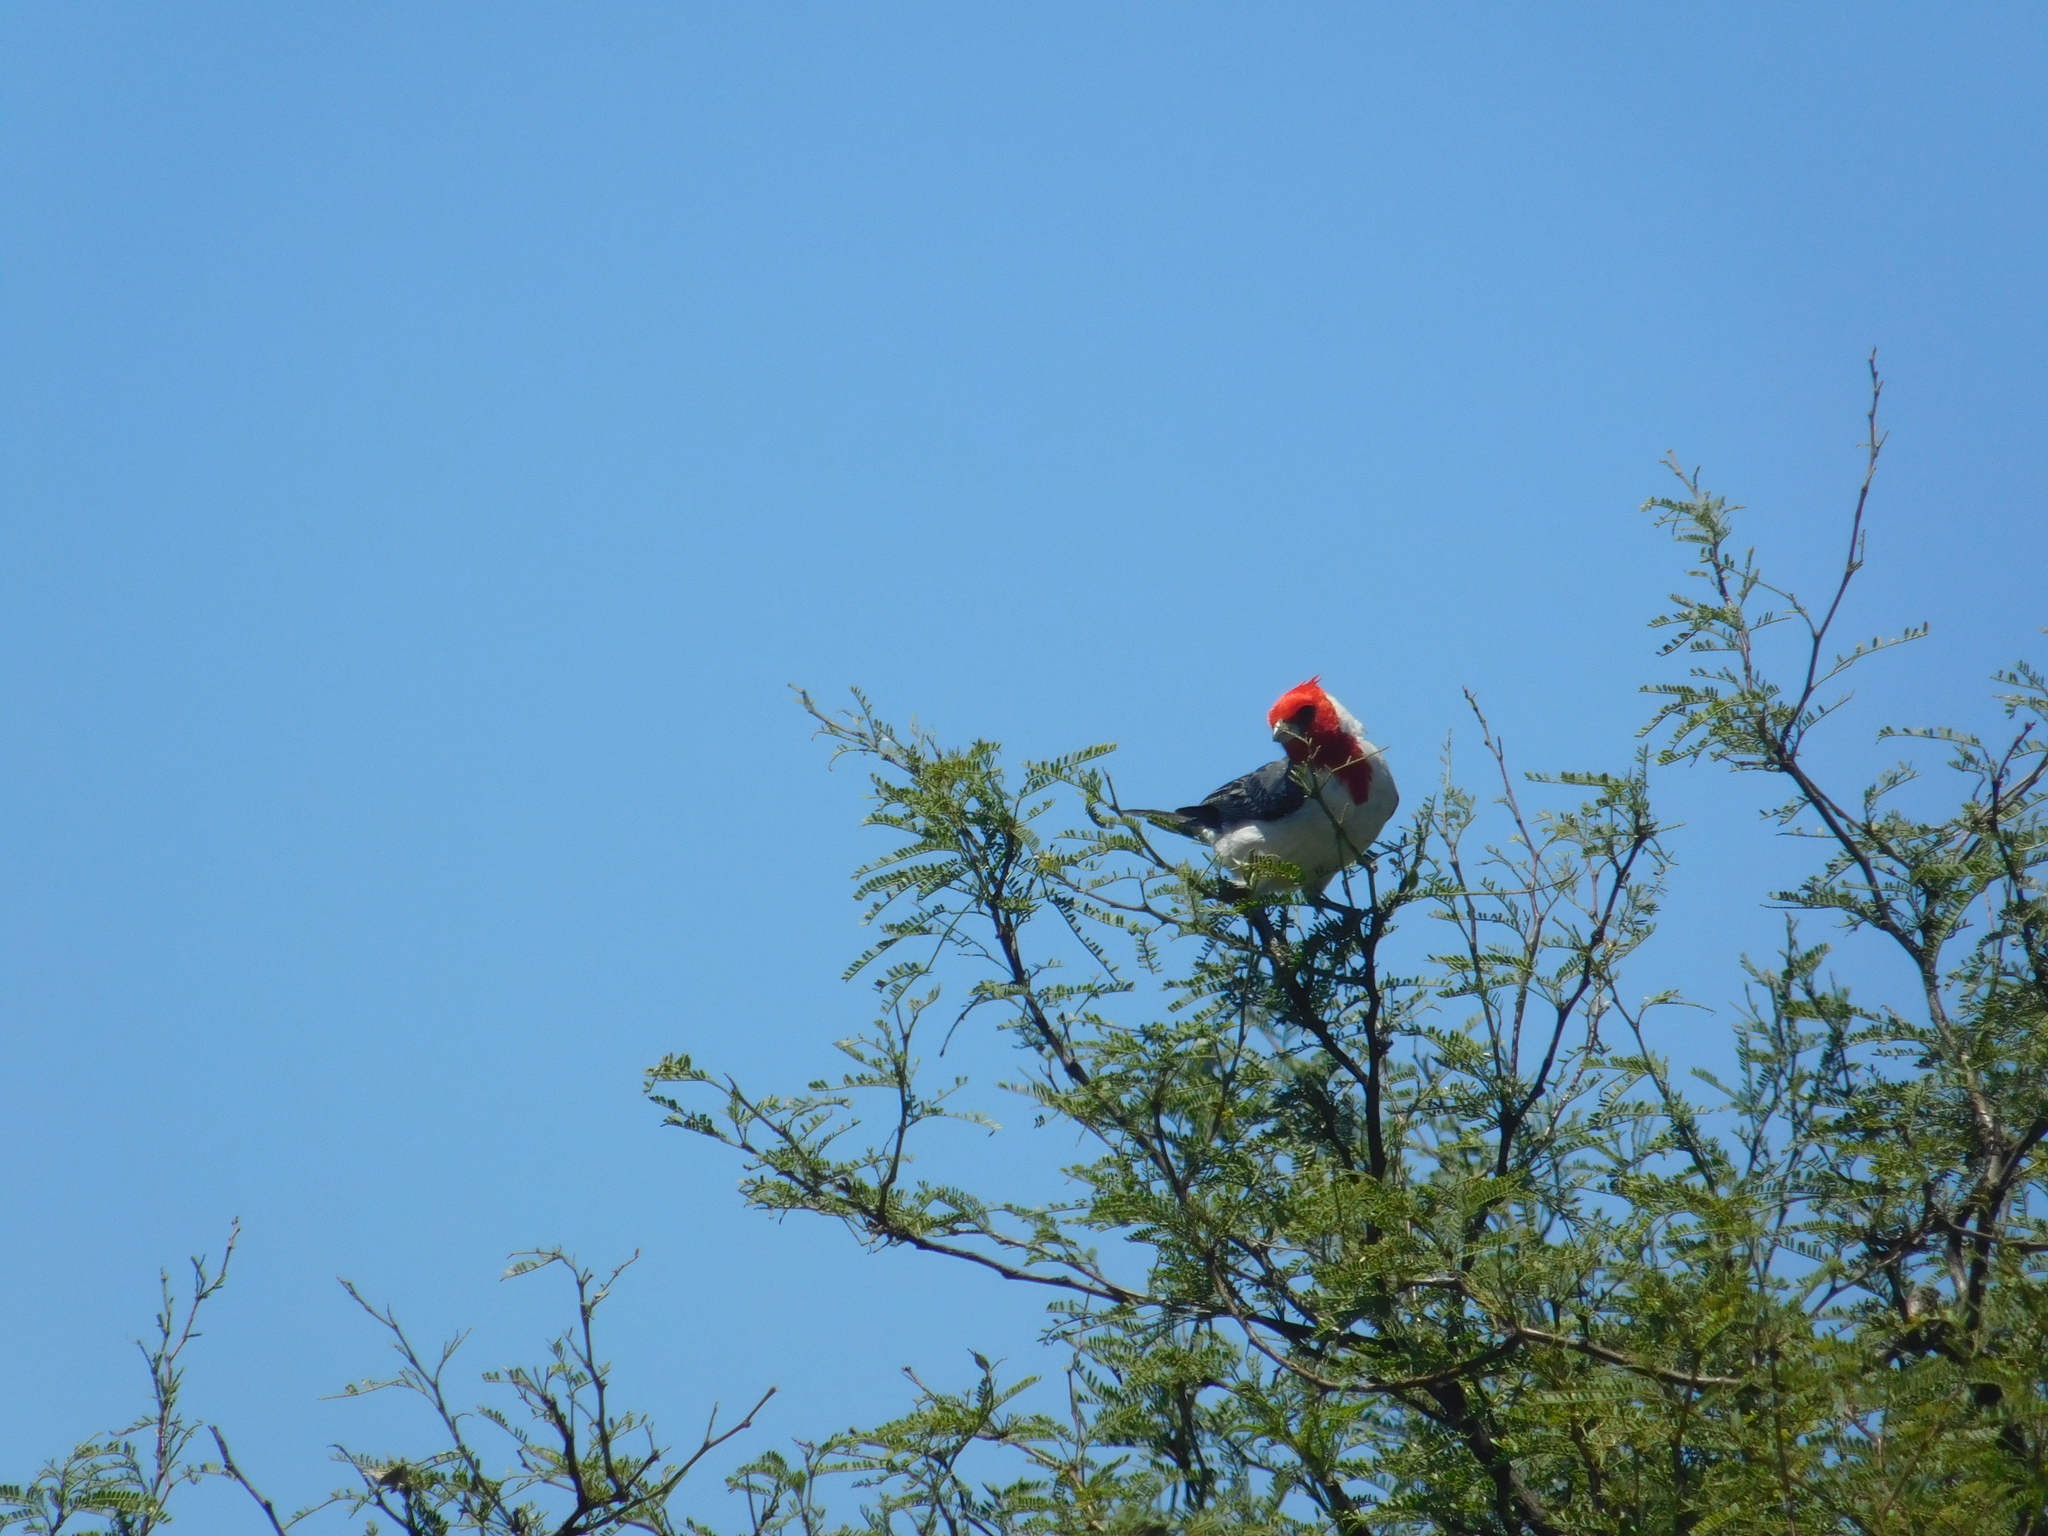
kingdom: Animalia
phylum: Chordata
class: Aves
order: Passeriformes
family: Thraupidae
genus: Paroaria
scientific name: Paroaria coronata
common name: Red-crested cardinal
